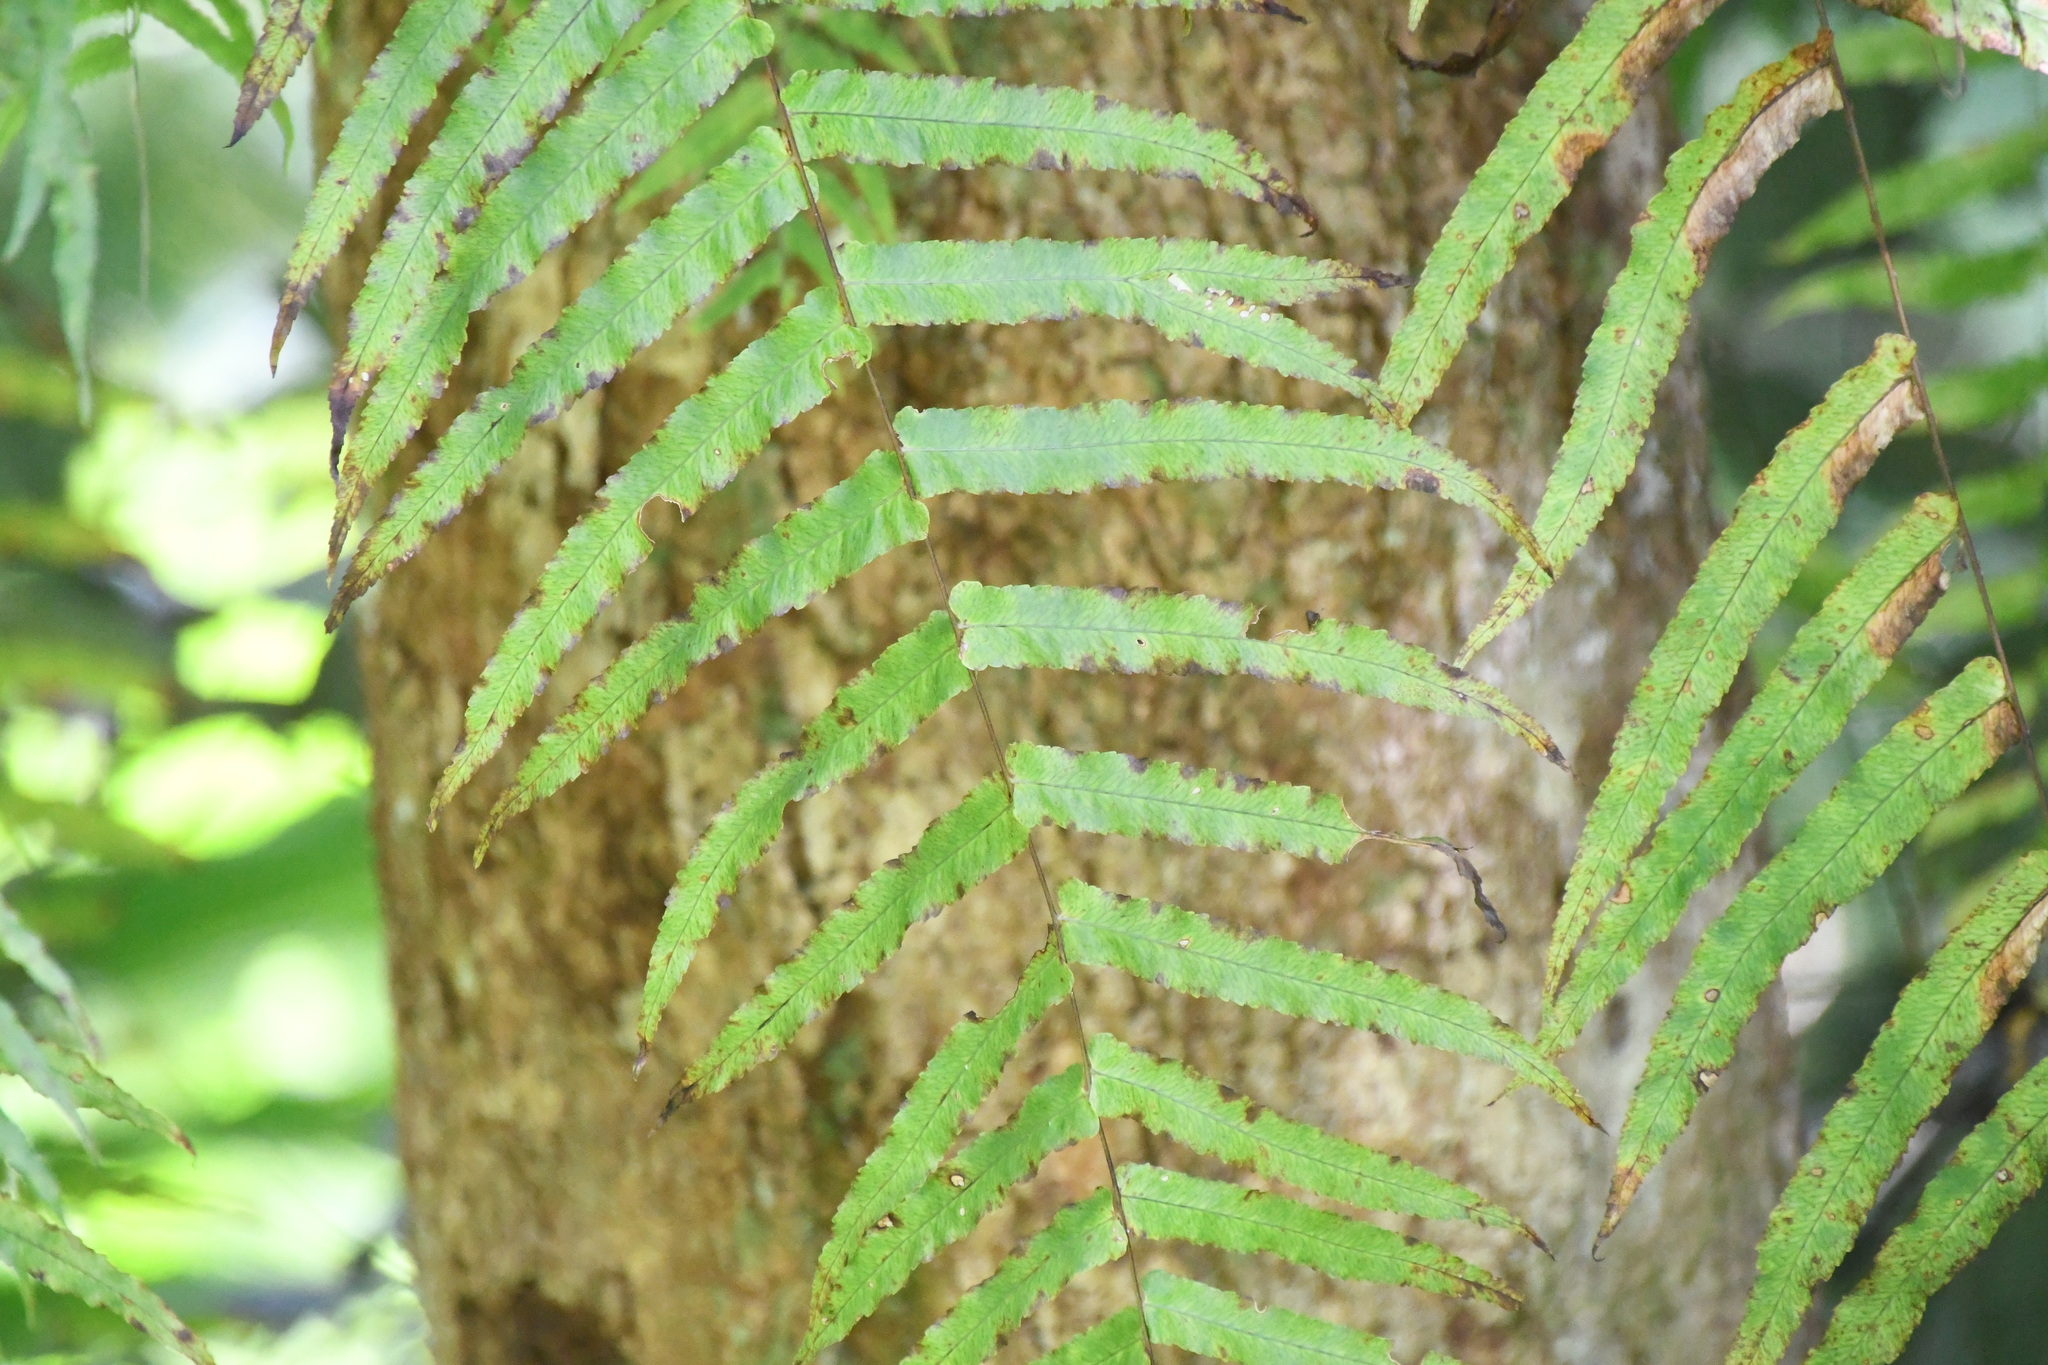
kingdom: Plantae
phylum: Tracheophyta
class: Polypodiopsida
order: Polypodiales
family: Polypodiaceae
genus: Drynaria
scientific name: Drynaria rigidula
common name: Basket fern
